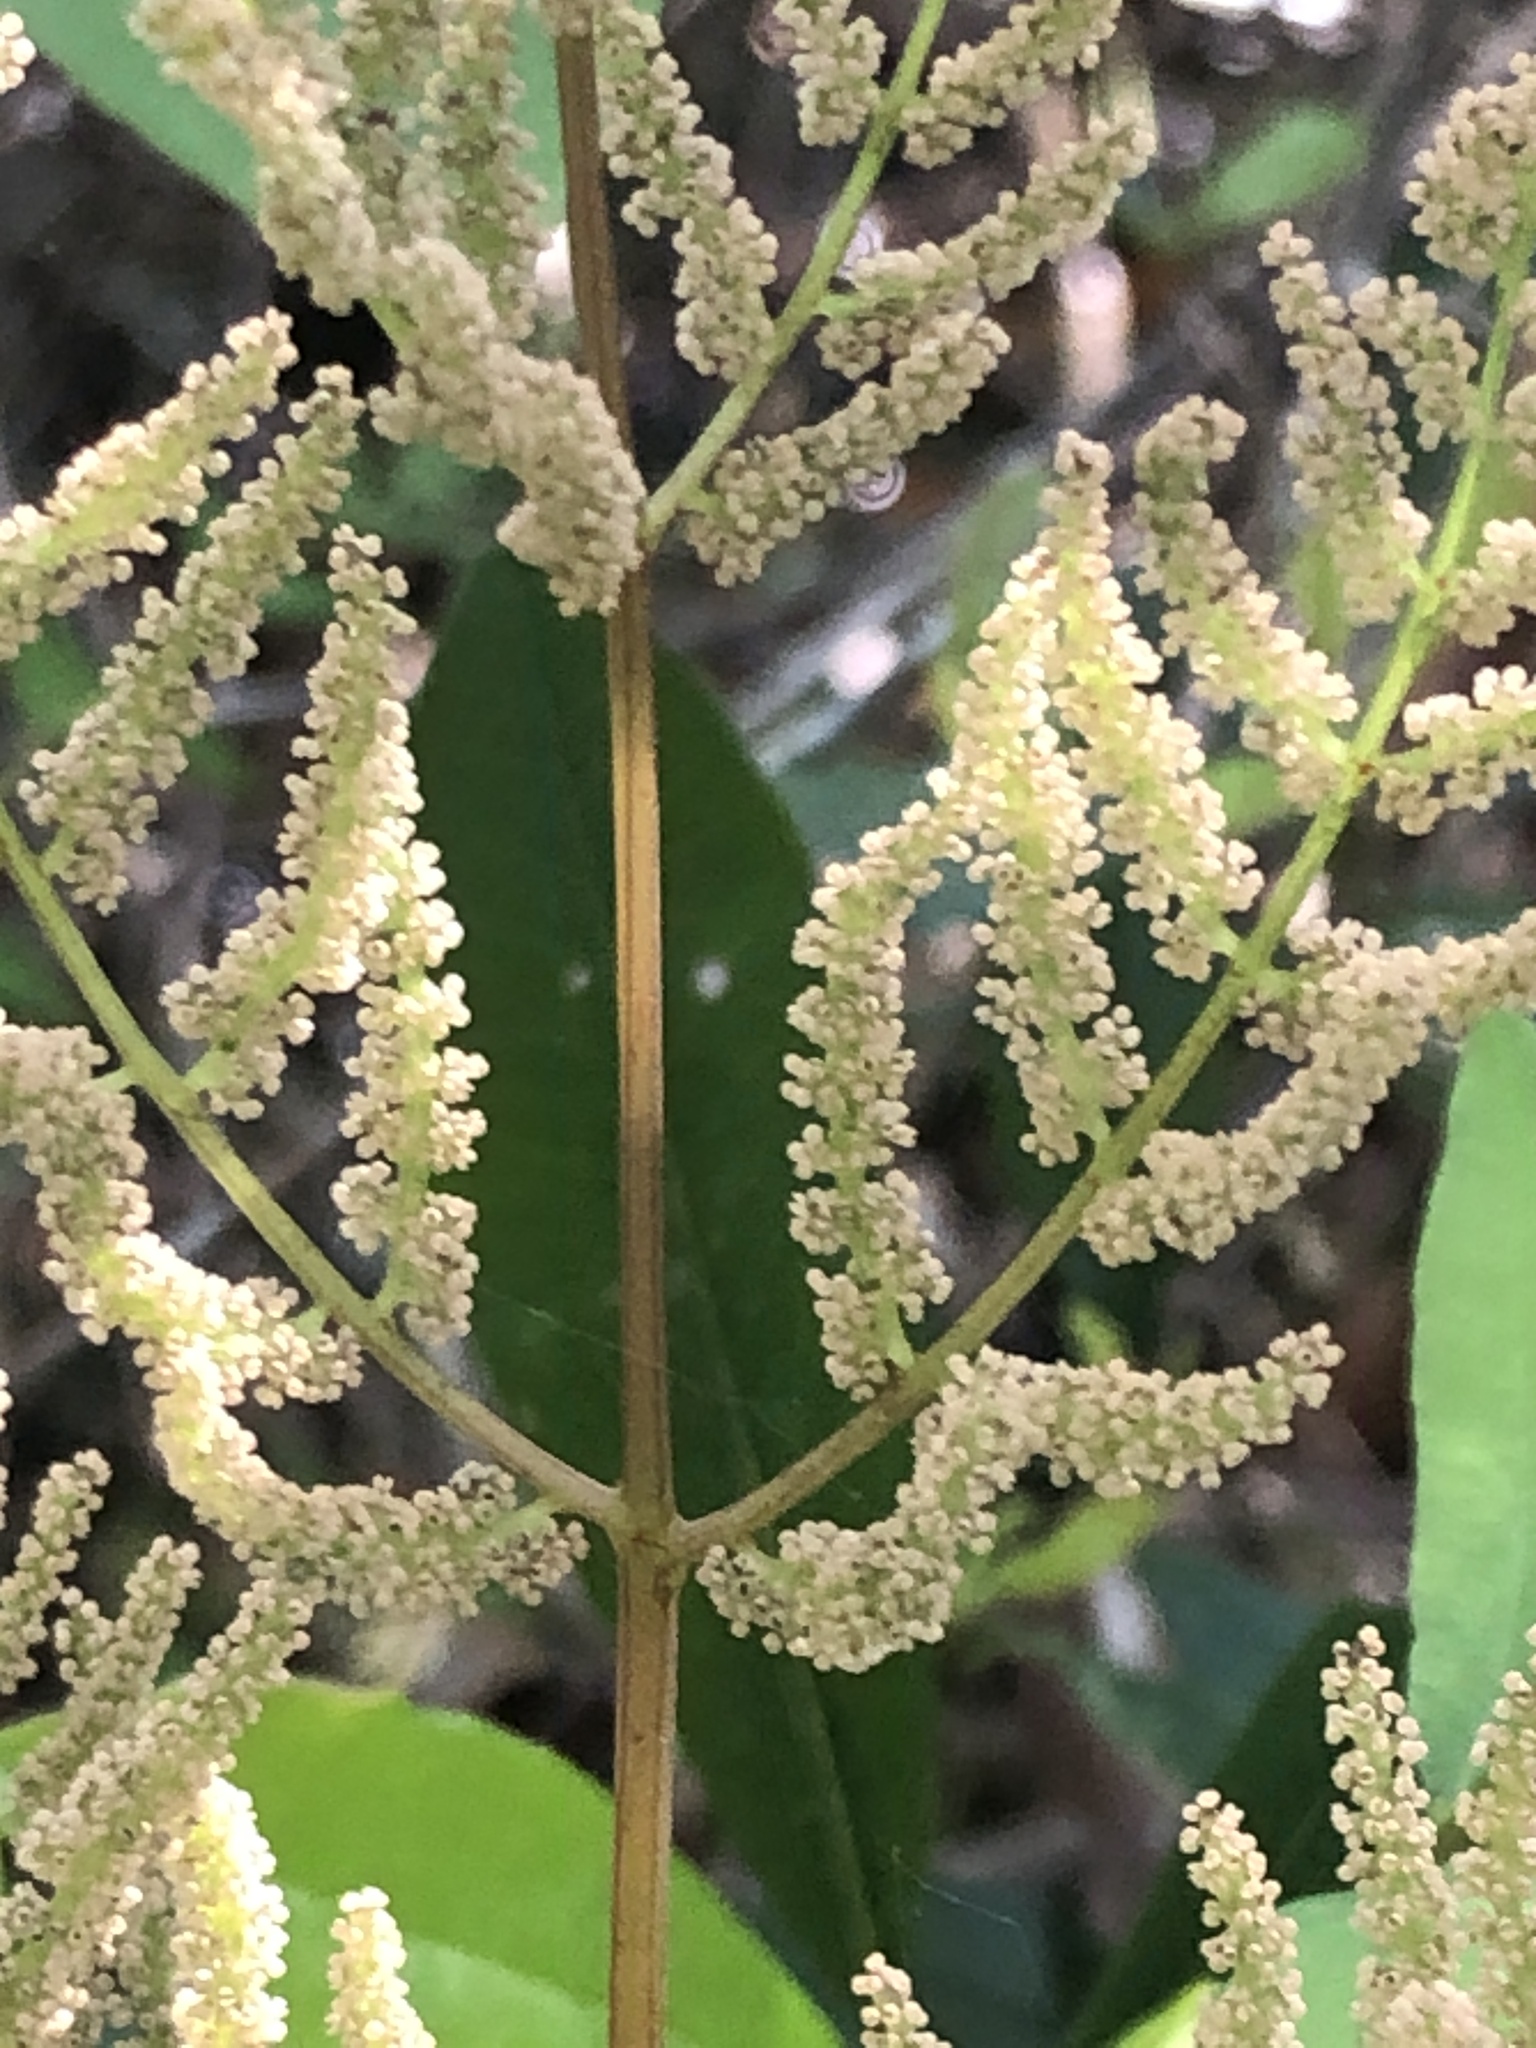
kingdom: Plantae
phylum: Tracheophyta
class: Polypodiopsida
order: Osmundales
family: Osmundaceae
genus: Osmunda
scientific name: Osmunda spectabilis
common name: American royal fern
